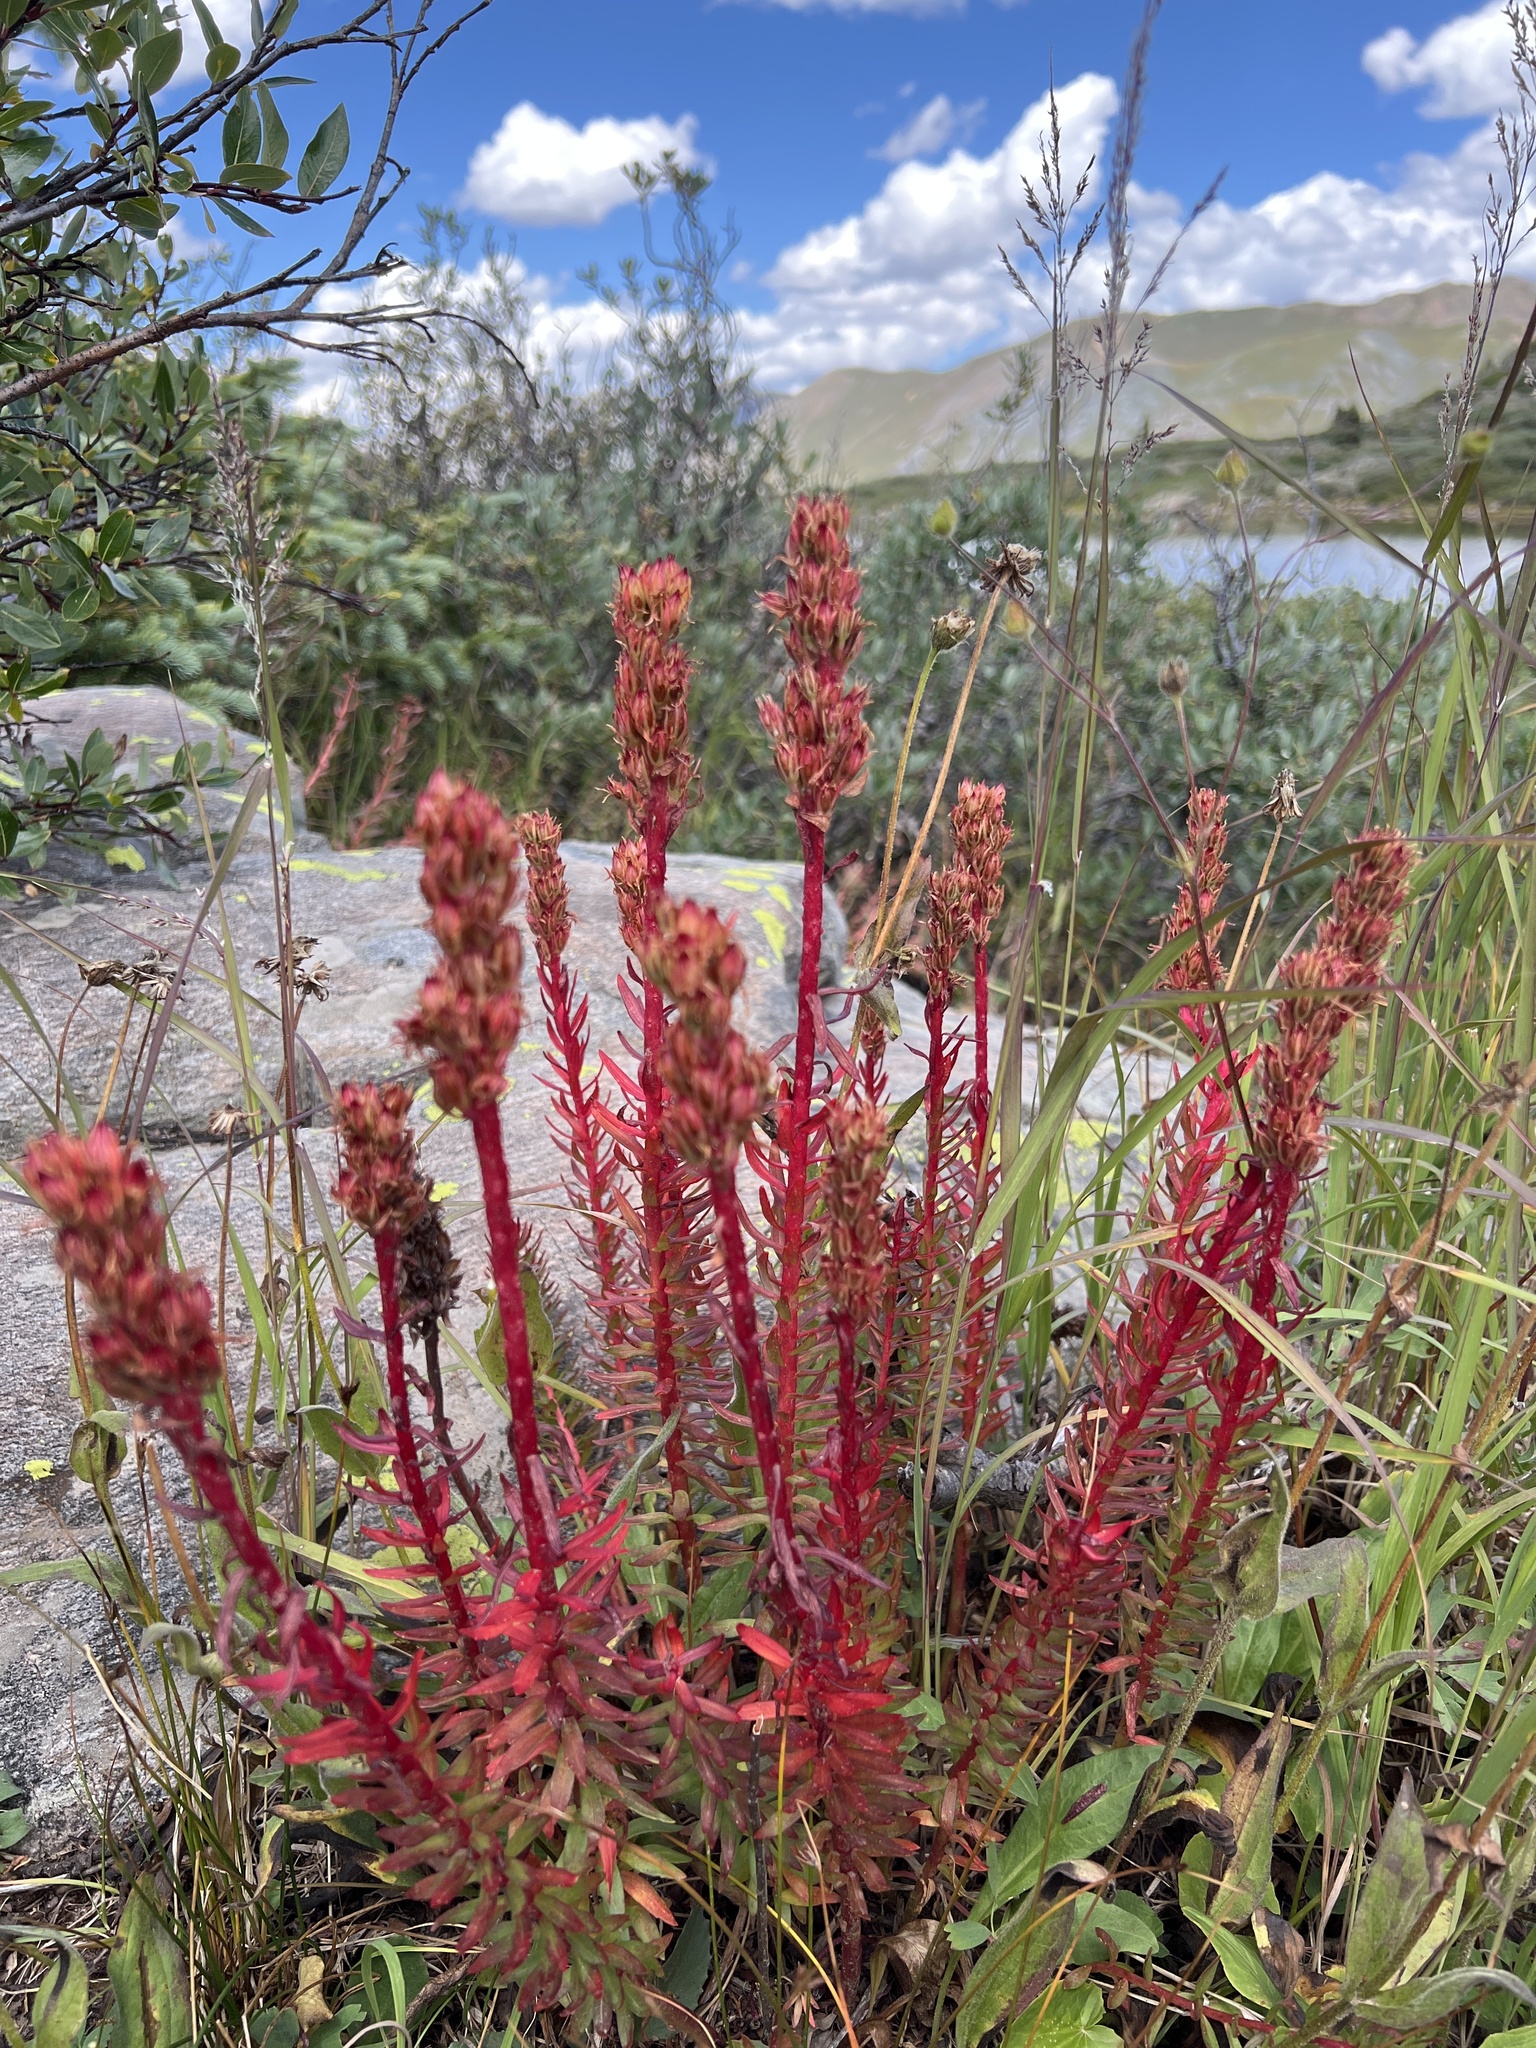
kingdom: Plantae
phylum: Tracheophyta
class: Magnoliopsida
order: Saxifragales
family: Crassulaceae
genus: Rhodiola
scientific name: Rhodiola rhodantha
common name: Red orpine
